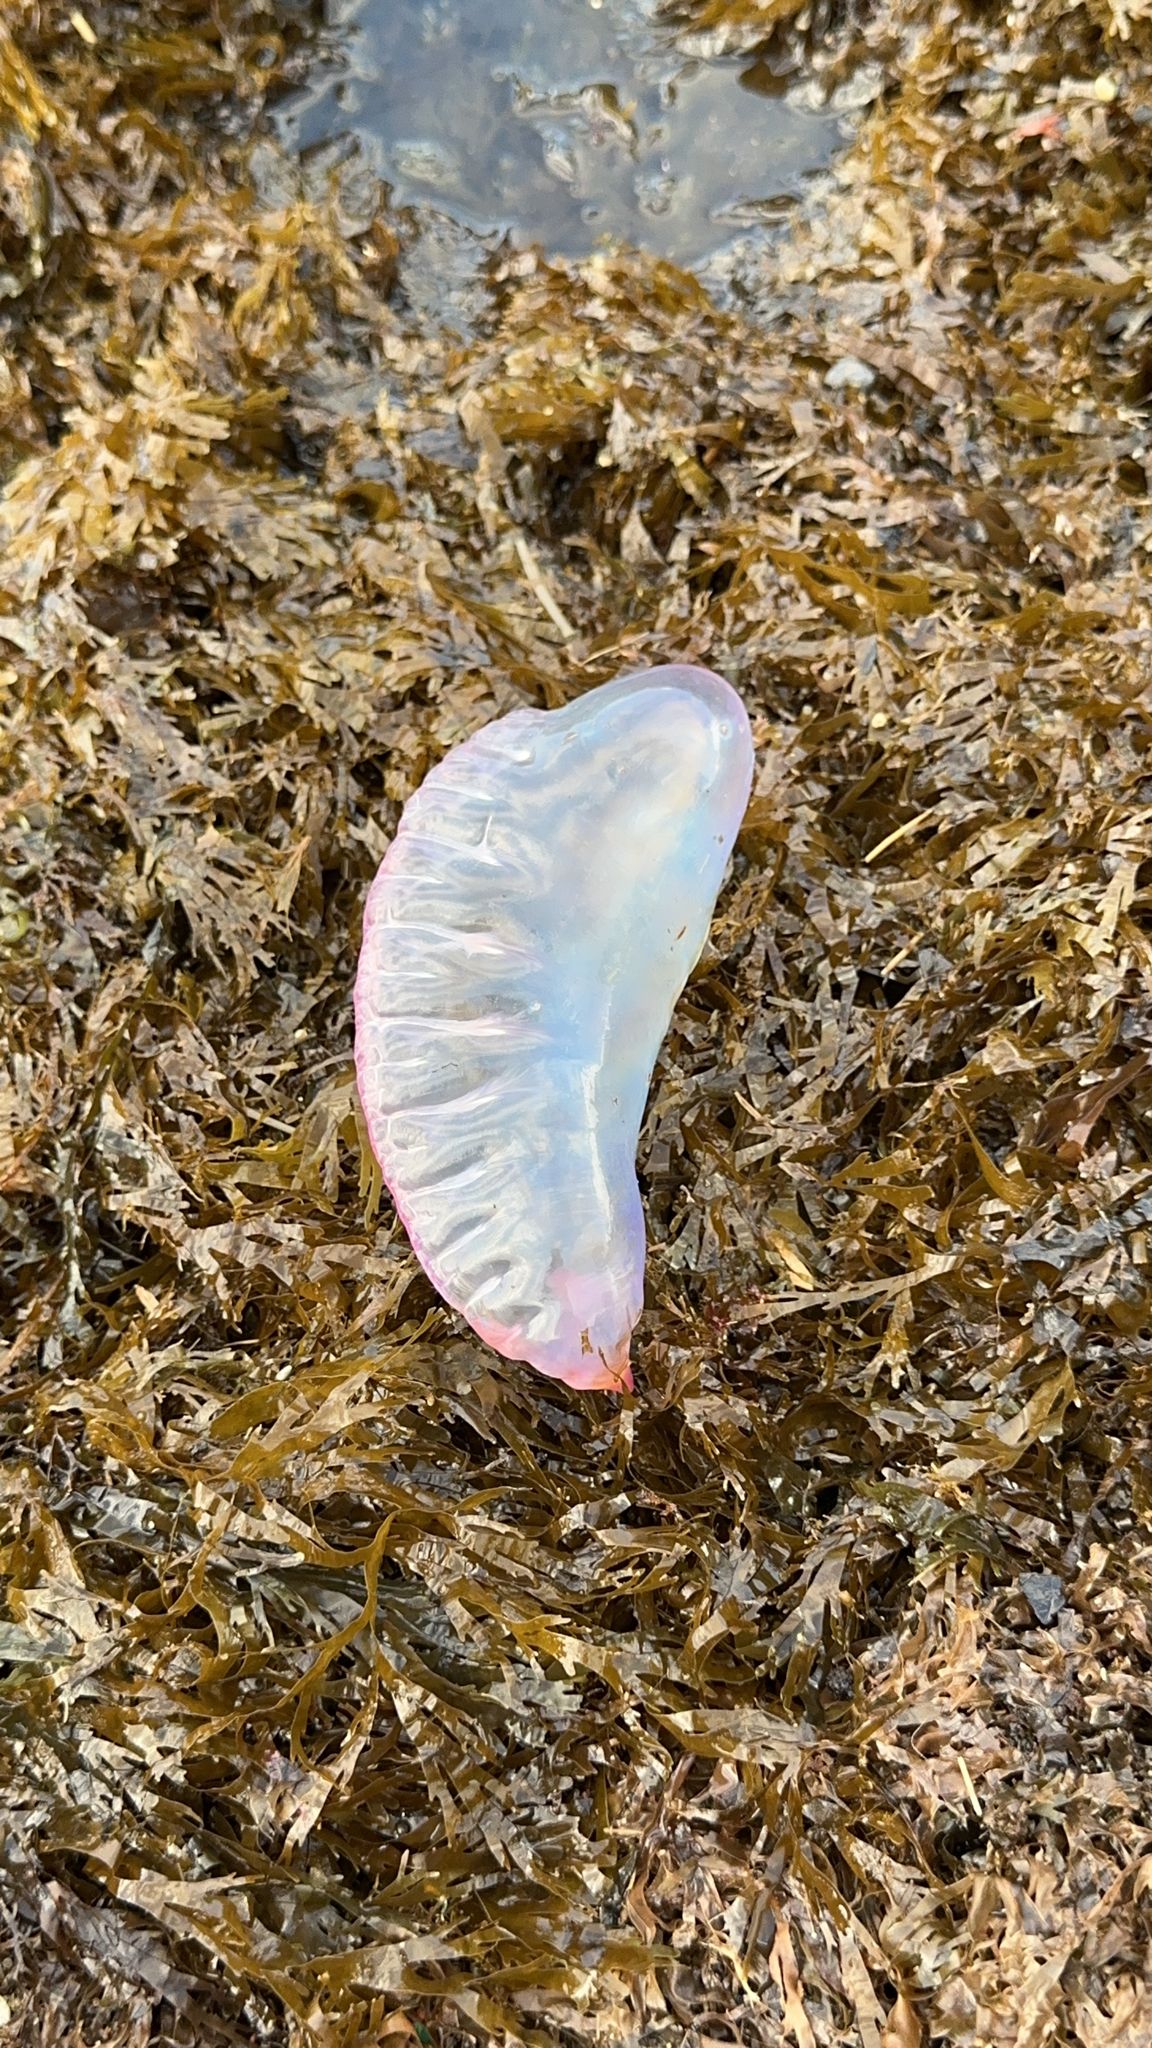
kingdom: Animalia
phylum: Cnidaria
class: Hydrozoa
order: Siphonophorae
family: Physaliidae
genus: Physalia
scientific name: Physalia physalis
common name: Portuguese man-of-war
